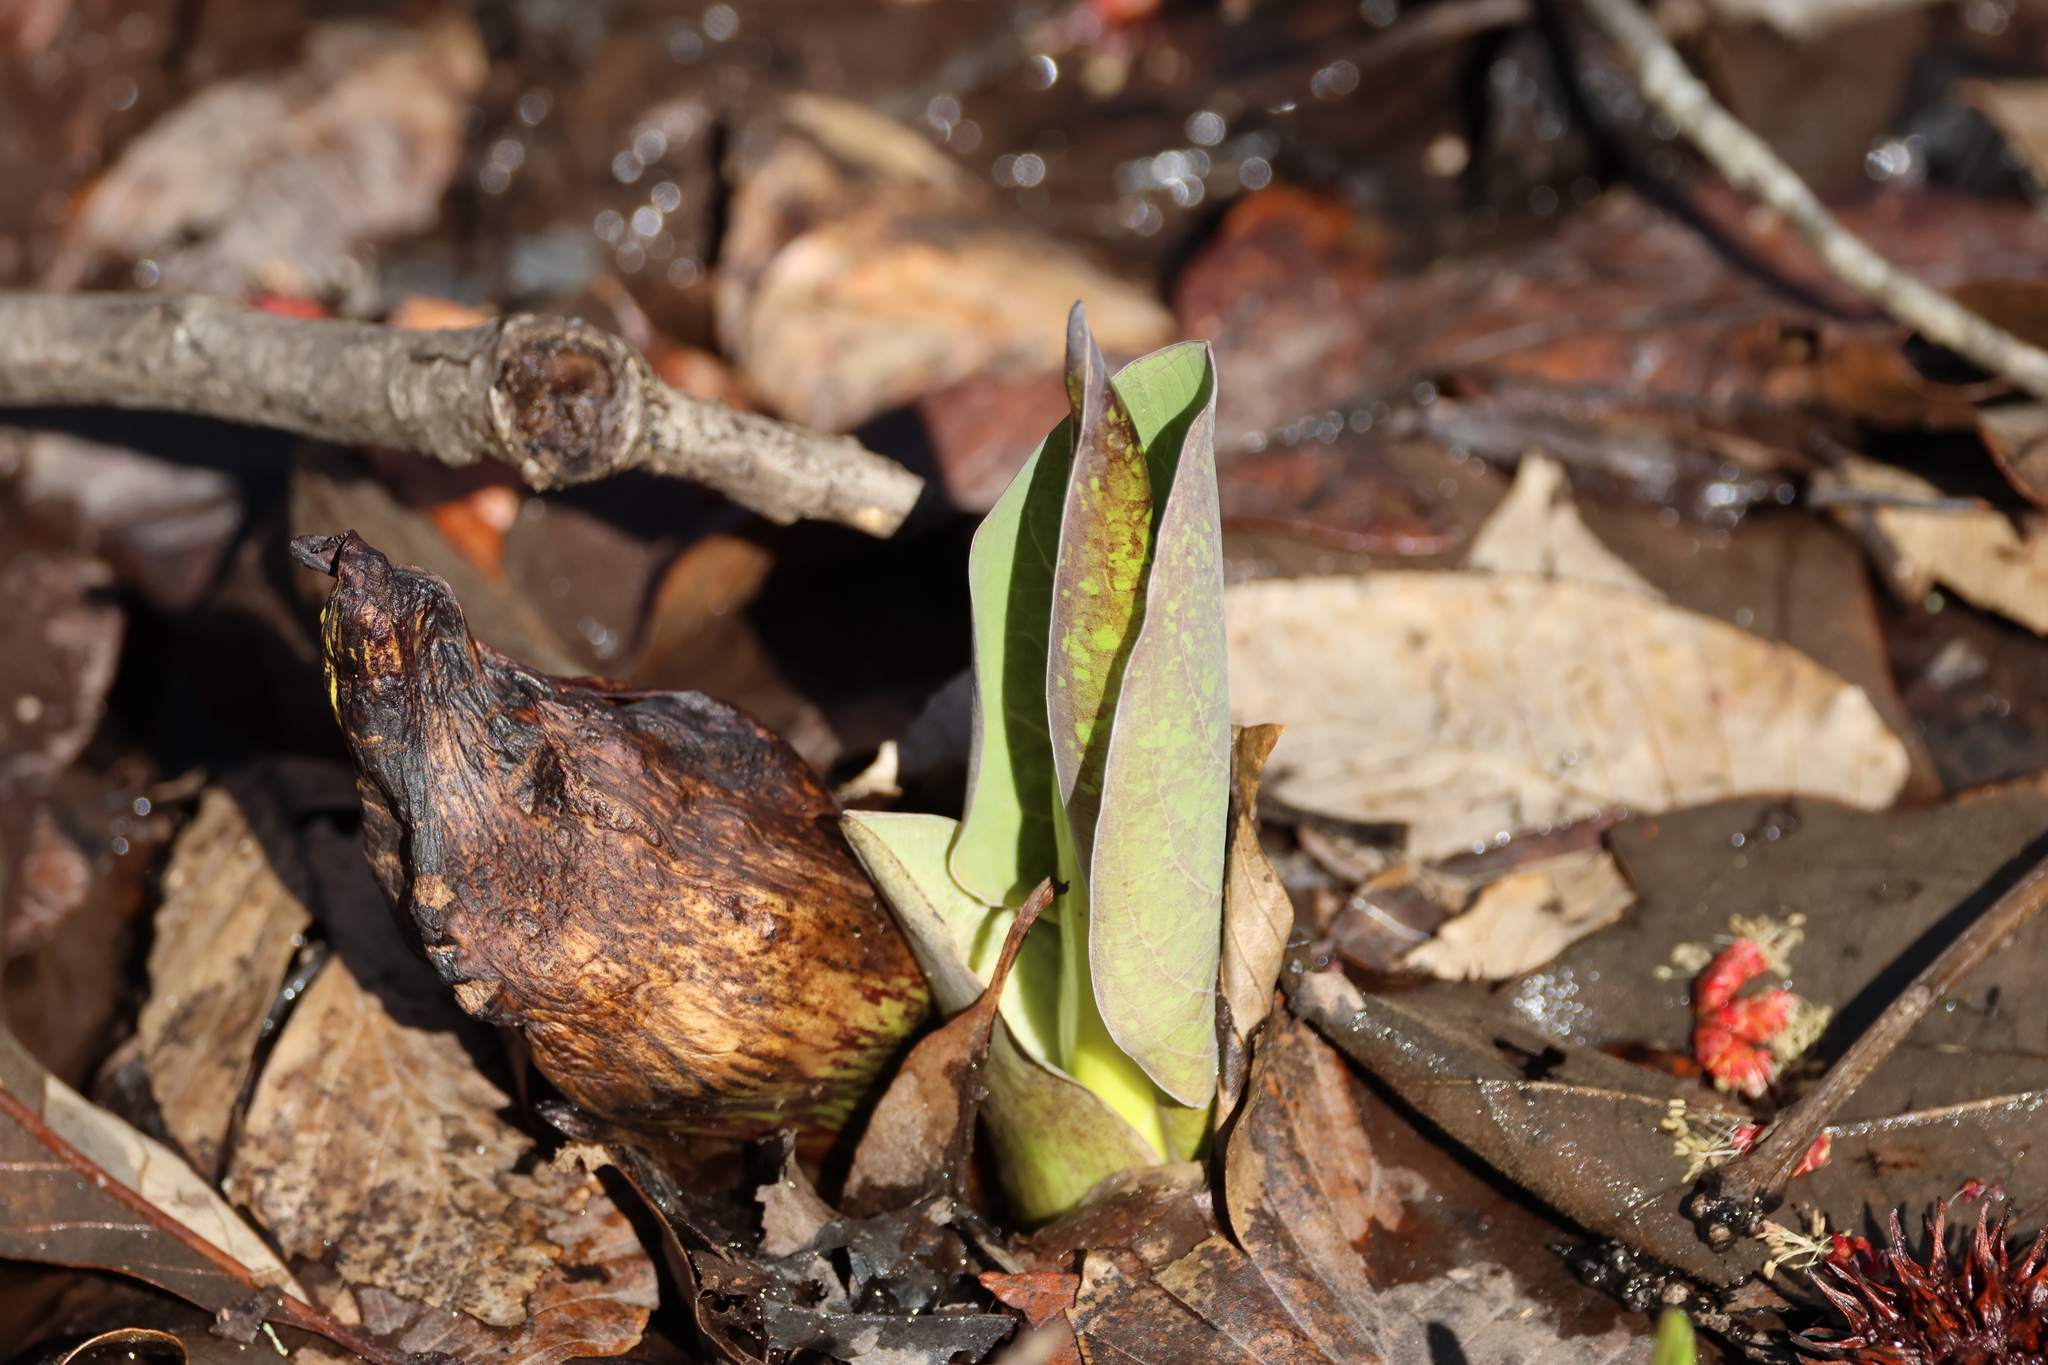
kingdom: Plantae
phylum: Tracheophyta
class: Liliopsida
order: Alismatales
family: Araceae
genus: Symplocarpus
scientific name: Symplocarpus foetidus
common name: Eastern skunk cabbage
